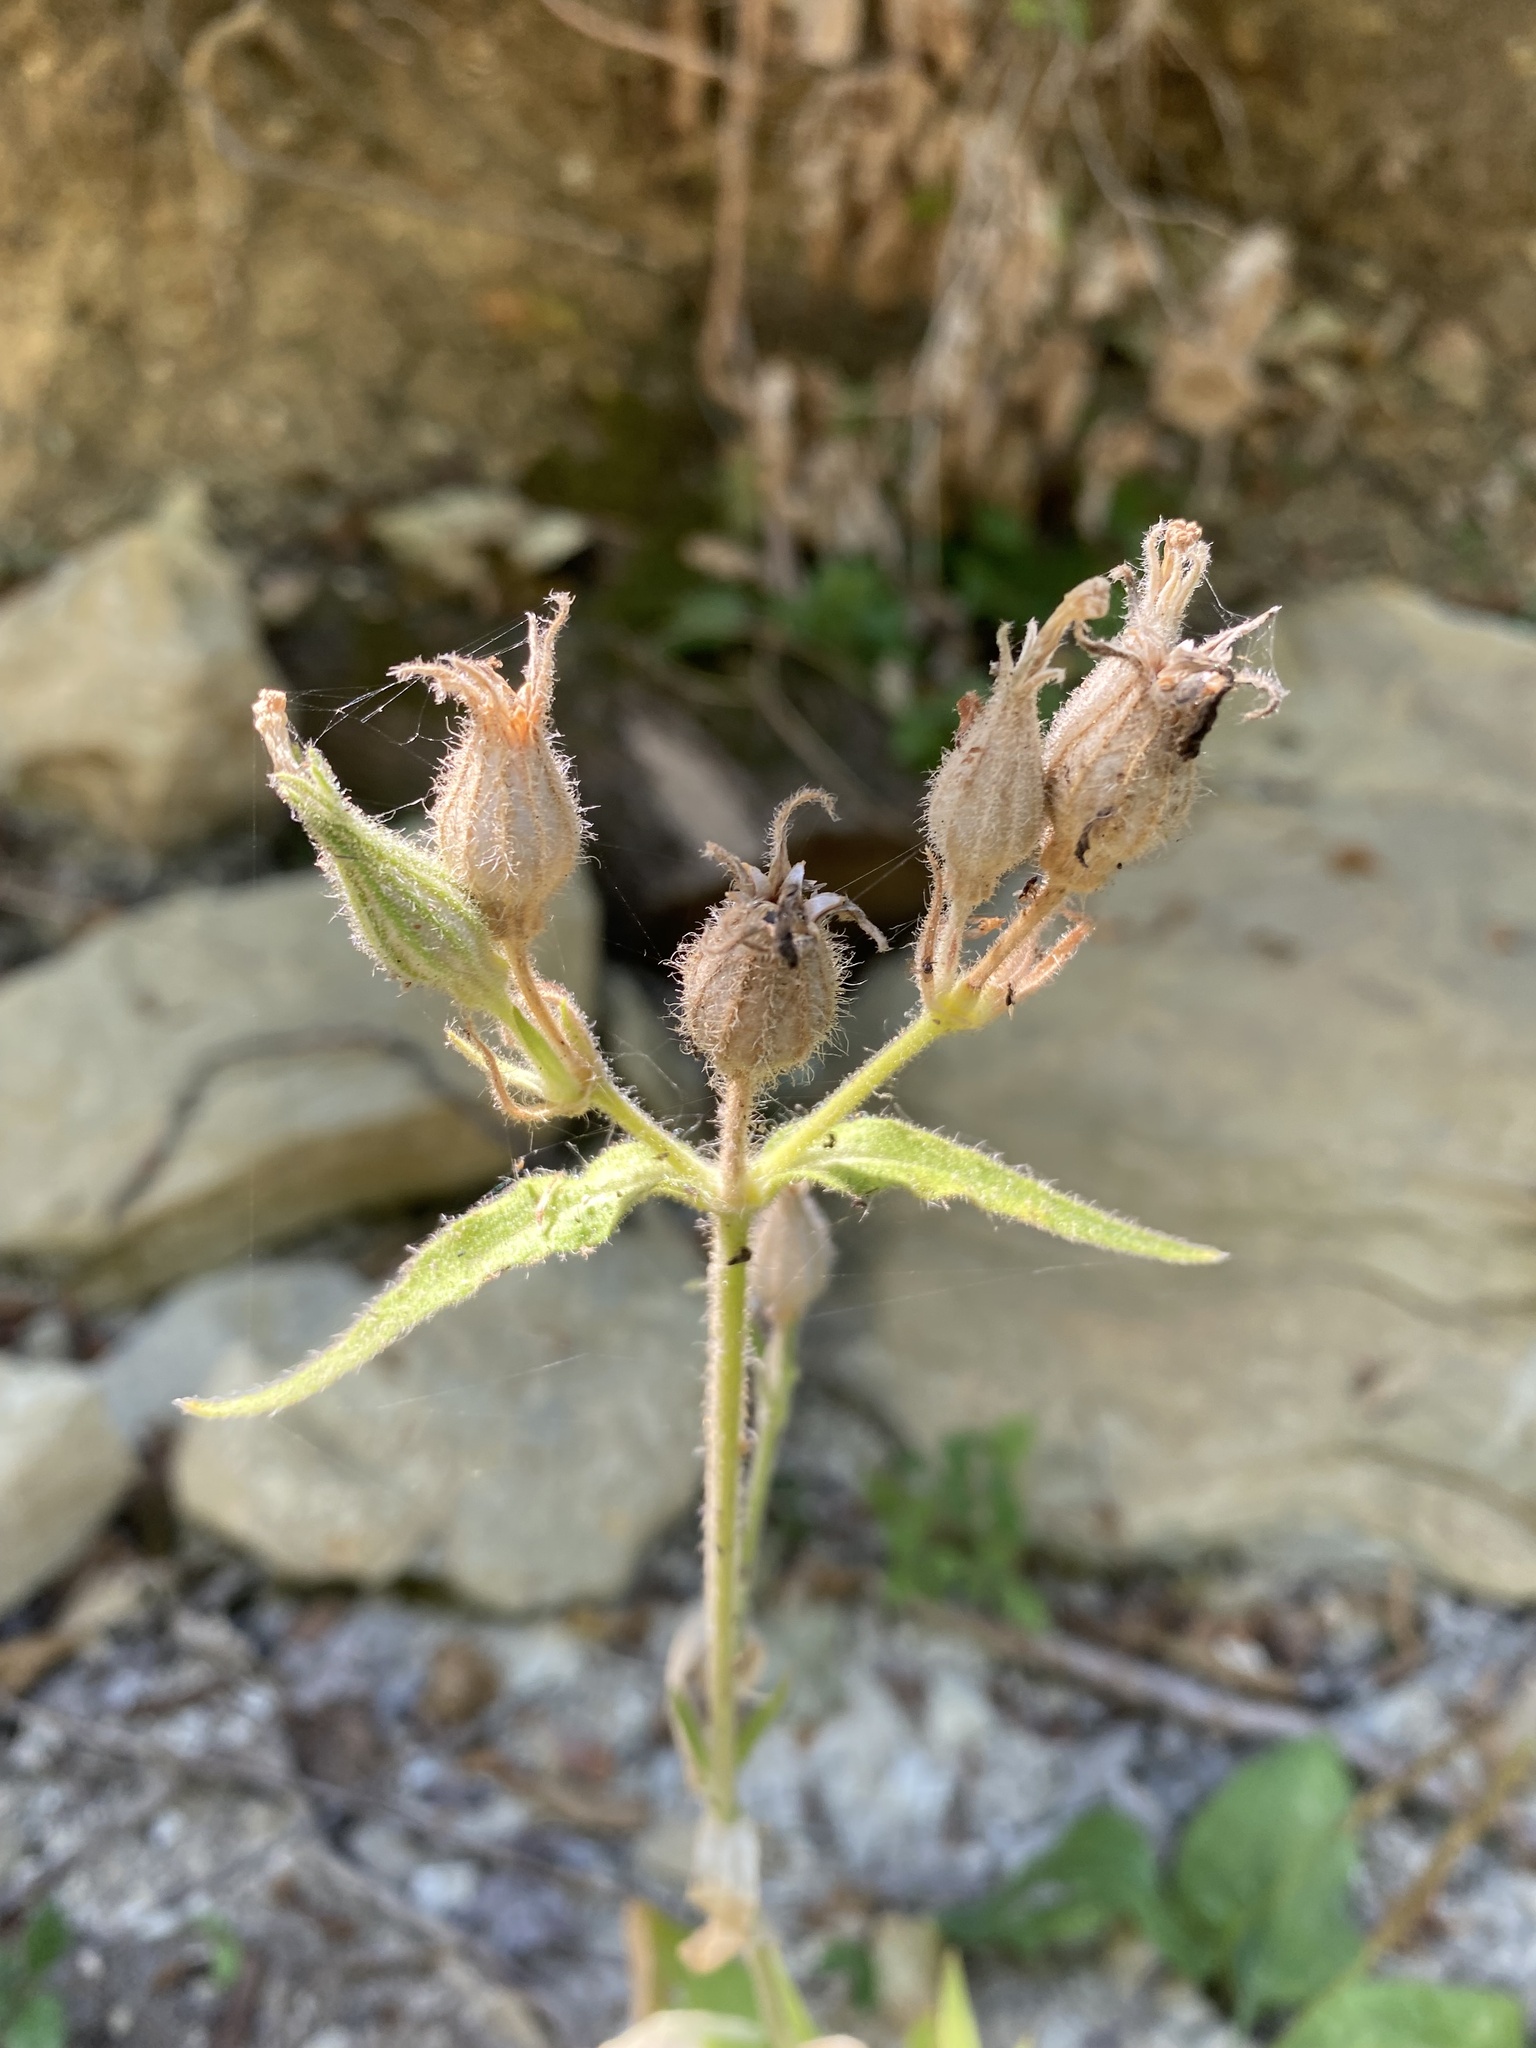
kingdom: Plantae
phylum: Tracheophyta
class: Magnoliopsida
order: Caryophyllales
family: Caryophyllaceae
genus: Silene
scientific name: Silene noctiflora
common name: Night-flowering catchfly
